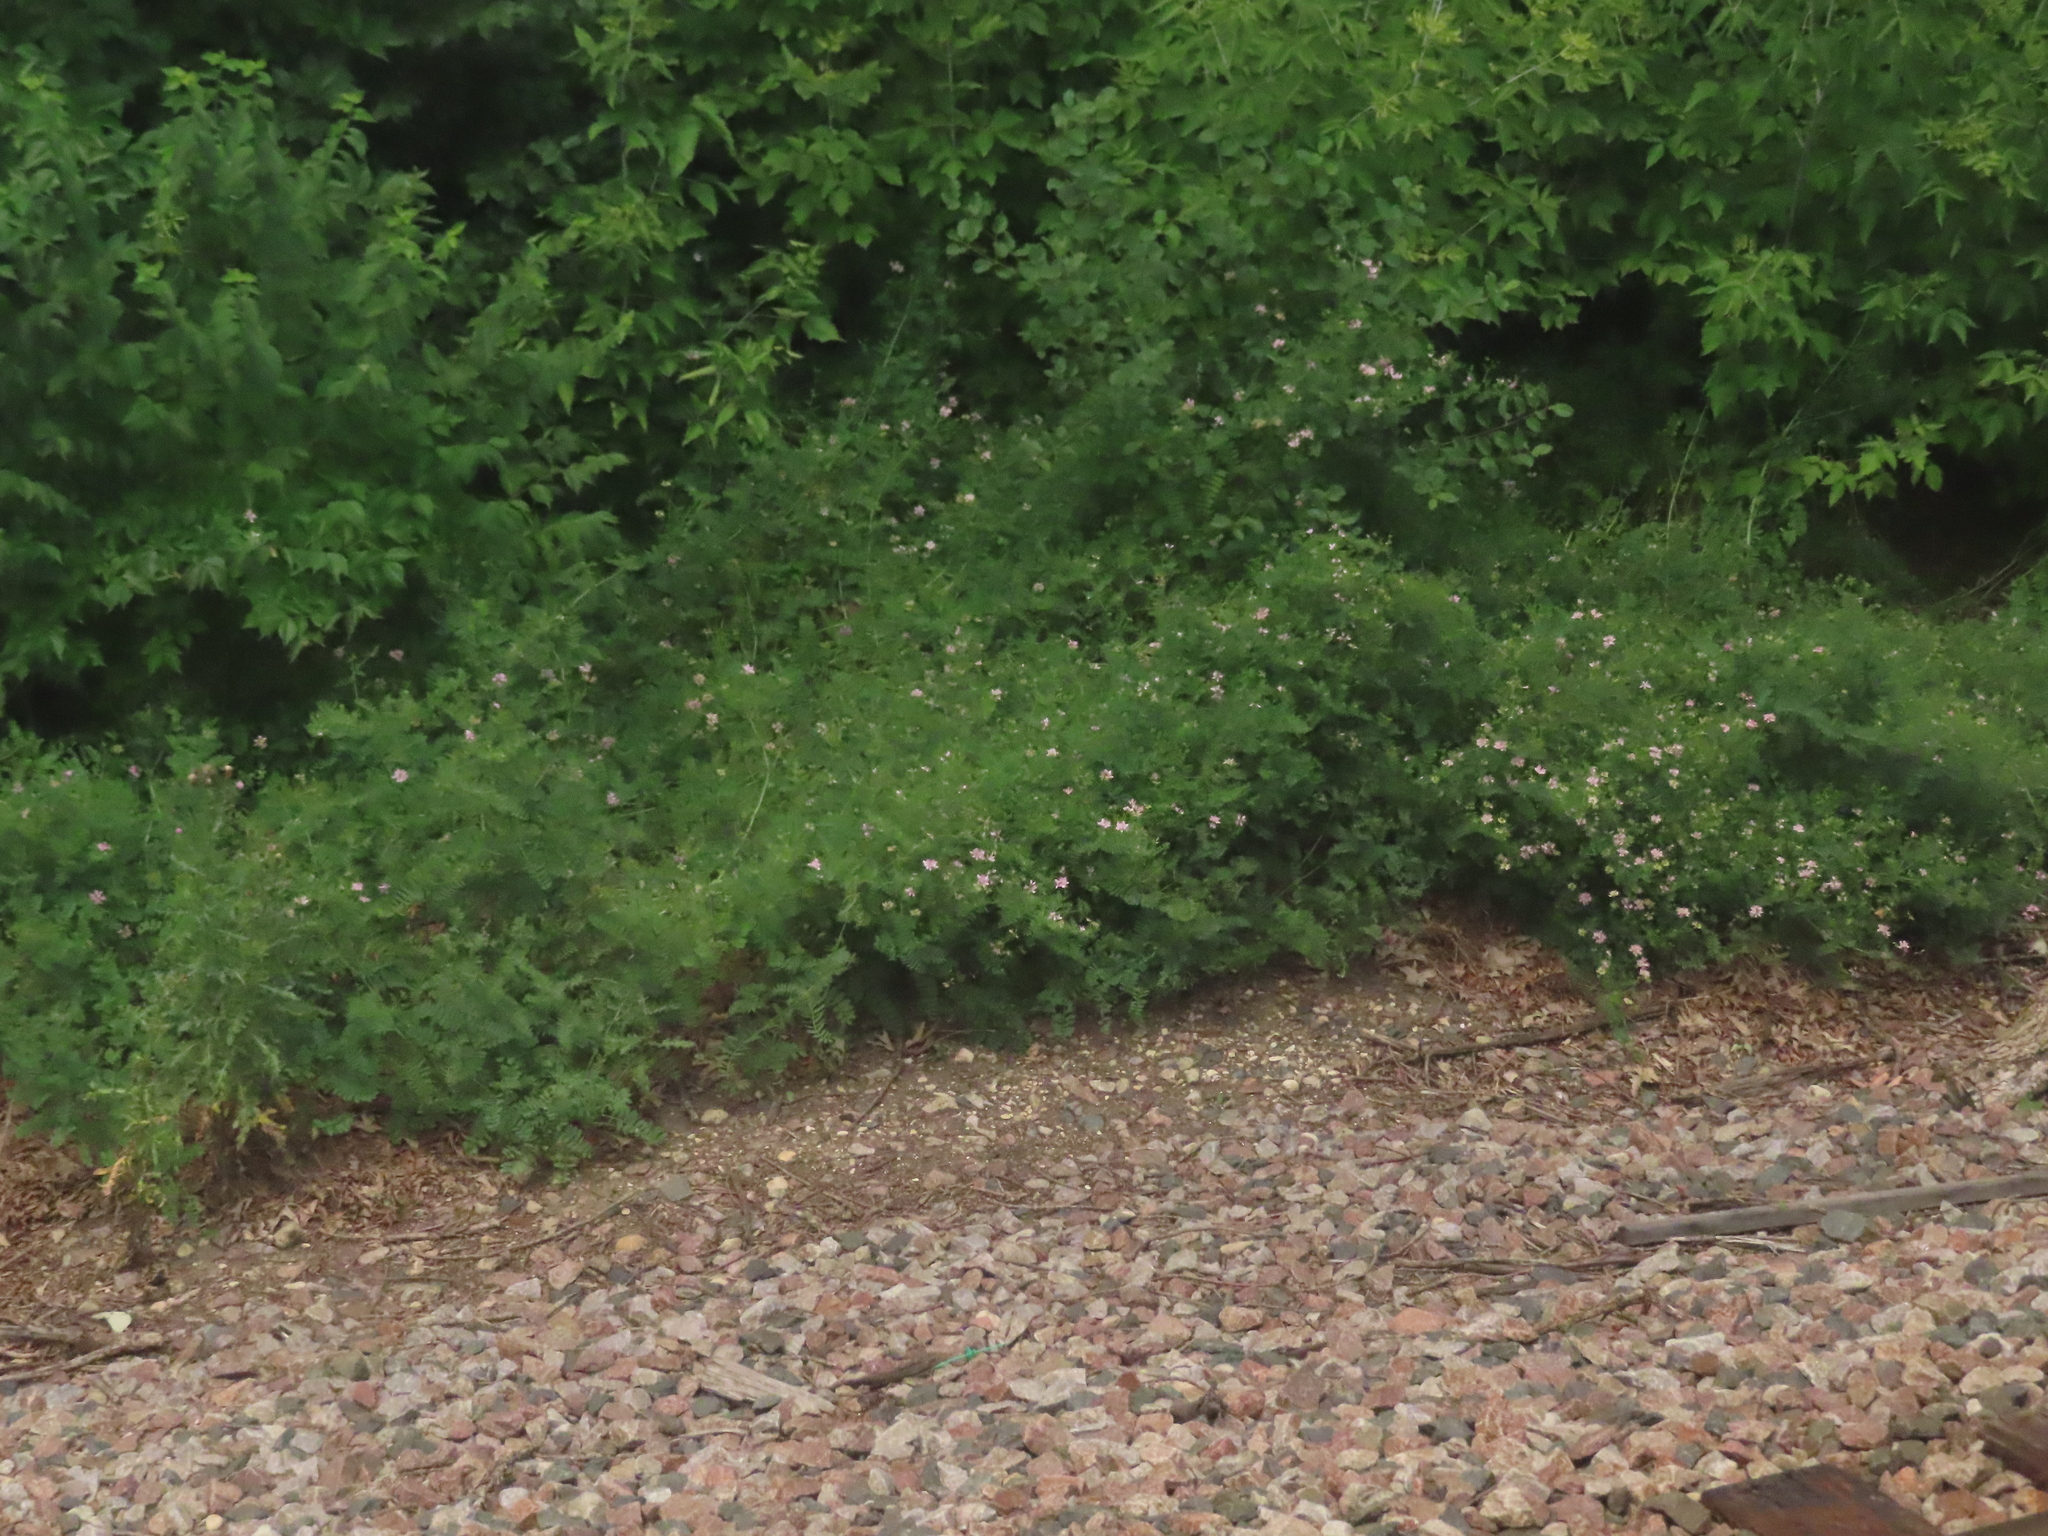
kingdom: Plantae
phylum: Tracheophyta
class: Magnoliopsida
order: Fabales
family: Fabaceae
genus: Coronilla
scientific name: Coronilla varia
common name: Crownvetch
